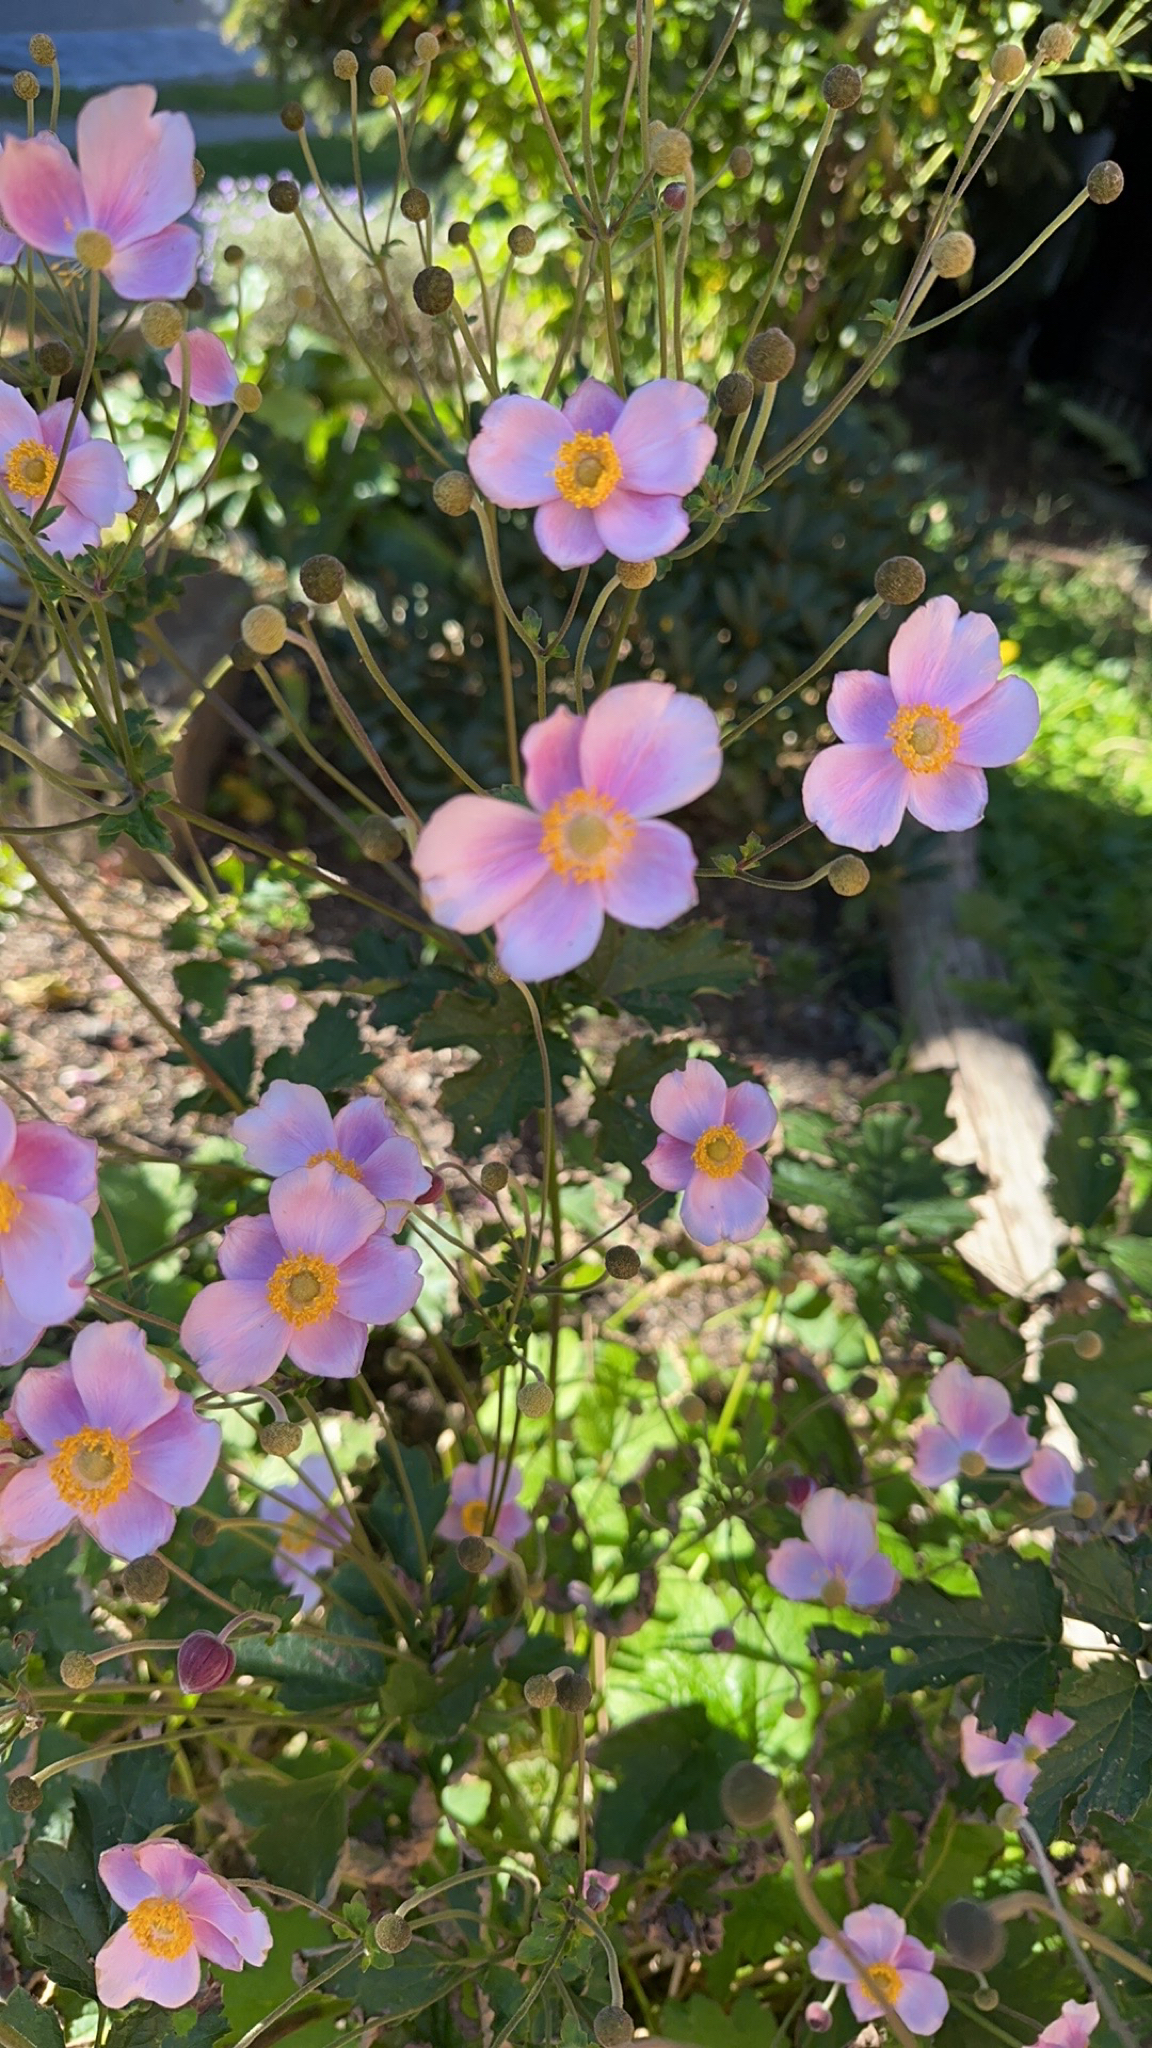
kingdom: Plantae
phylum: Tracheophyta
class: Magnoliopsida
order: Ranunculales
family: Ranunculaceae
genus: Eriocapitella
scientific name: Eriocapitella hupehensis
